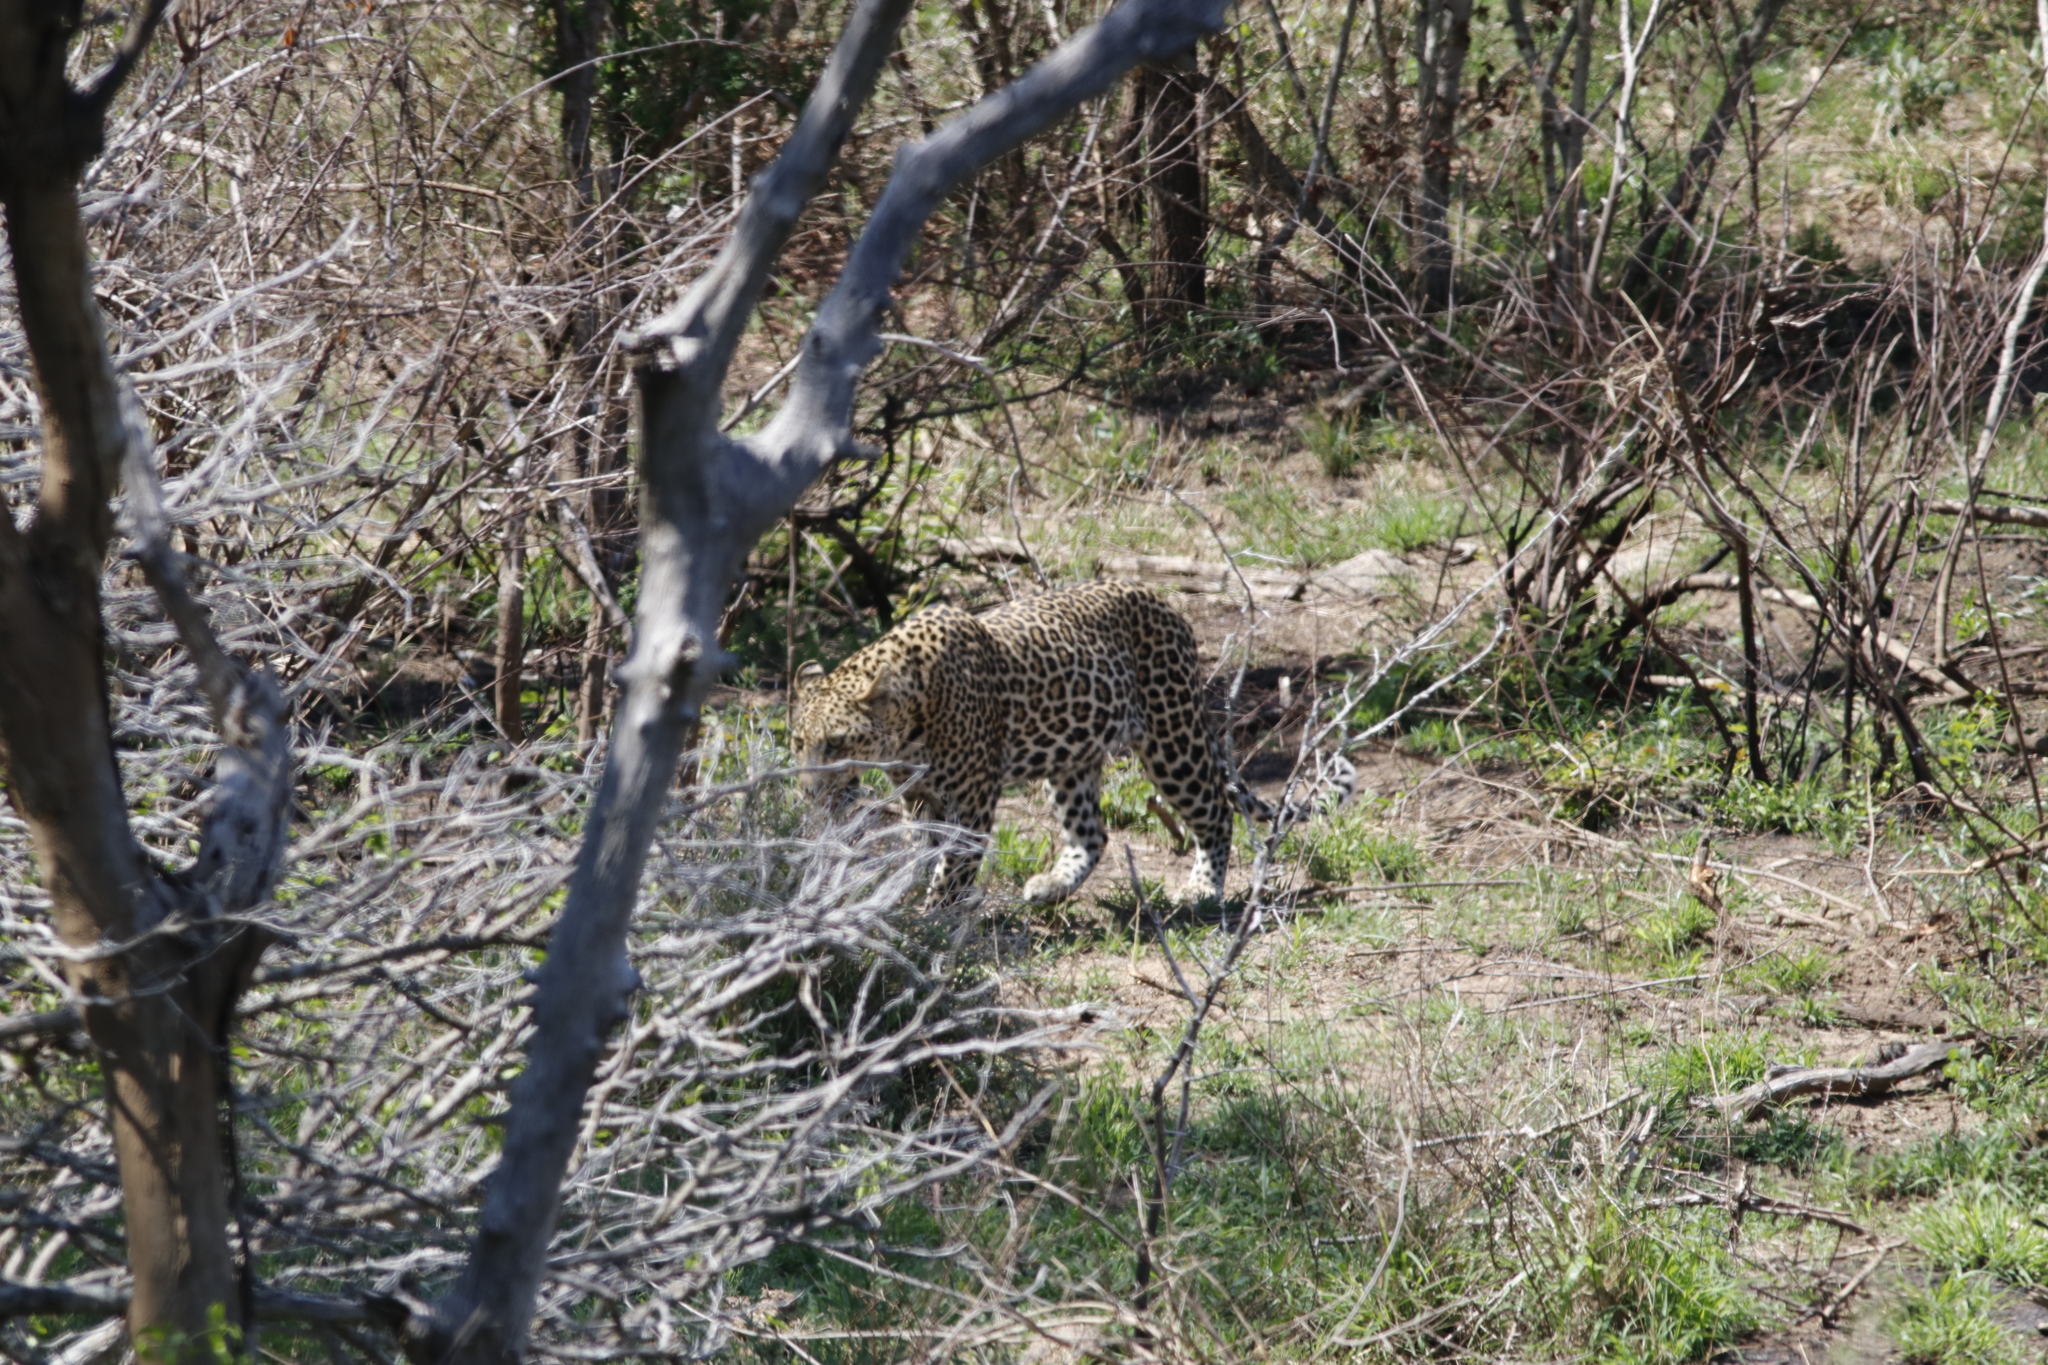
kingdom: Animalia
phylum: Chordata
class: Mammalia
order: Carnivora
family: Felidae
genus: Panthera
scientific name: Panthera pardus
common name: Leopard
